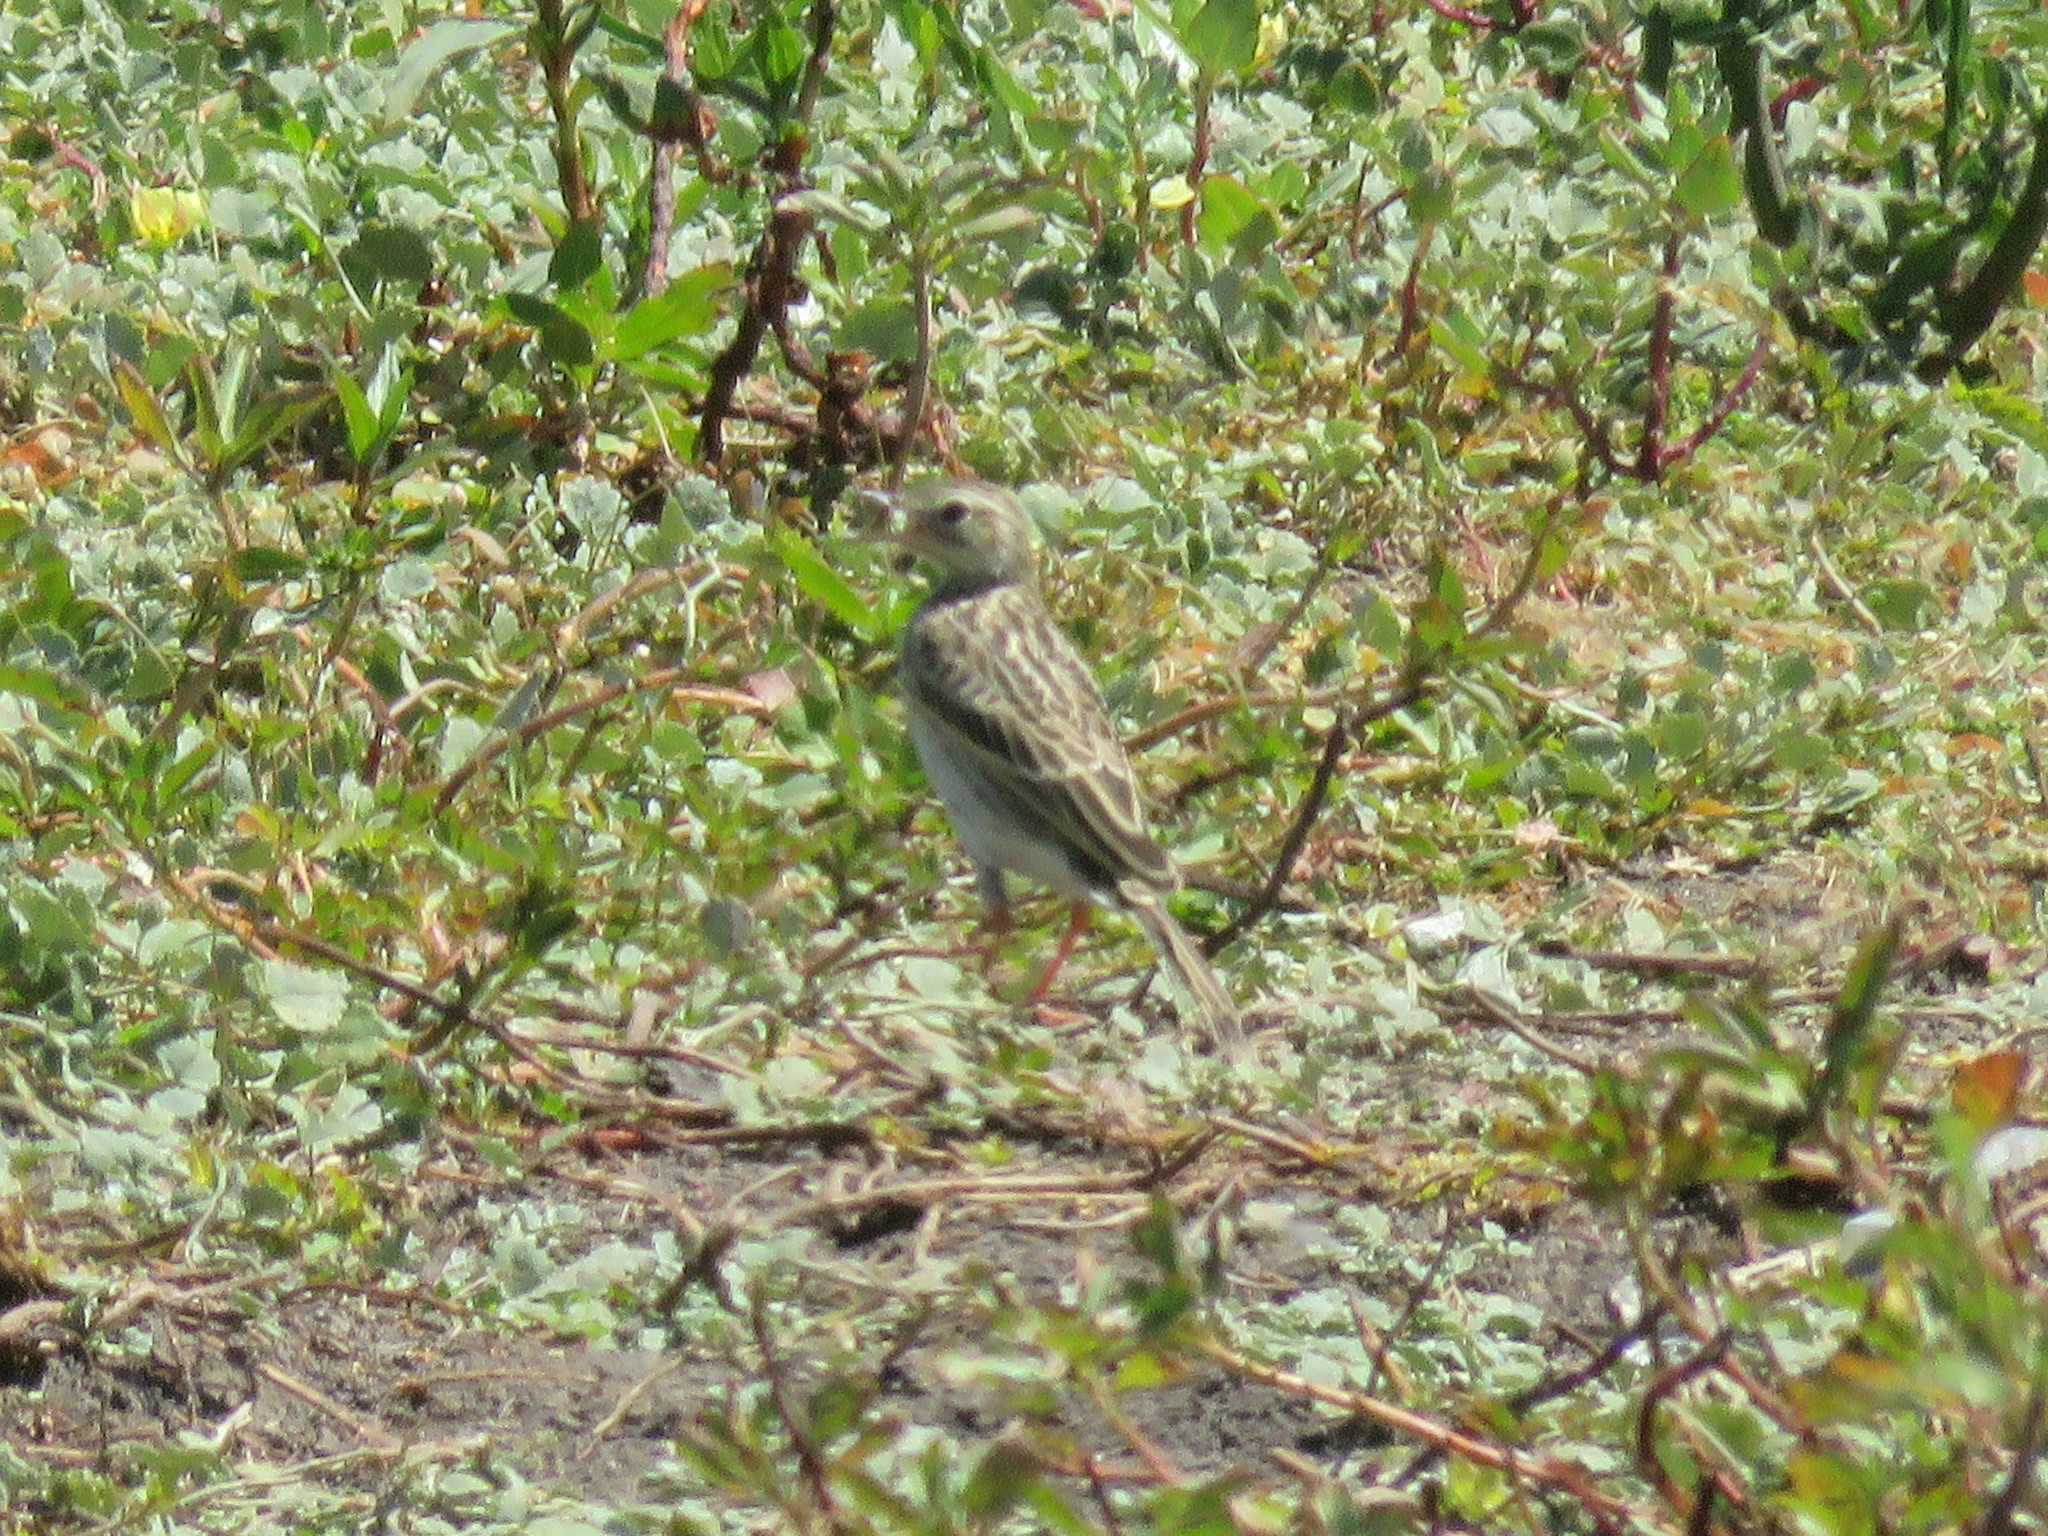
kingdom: Animalia
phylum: Chordata
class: Aves
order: Passeriformes
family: Motacillidae
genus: Anthus
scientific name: Anthus chii
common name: Yellowish pipit
